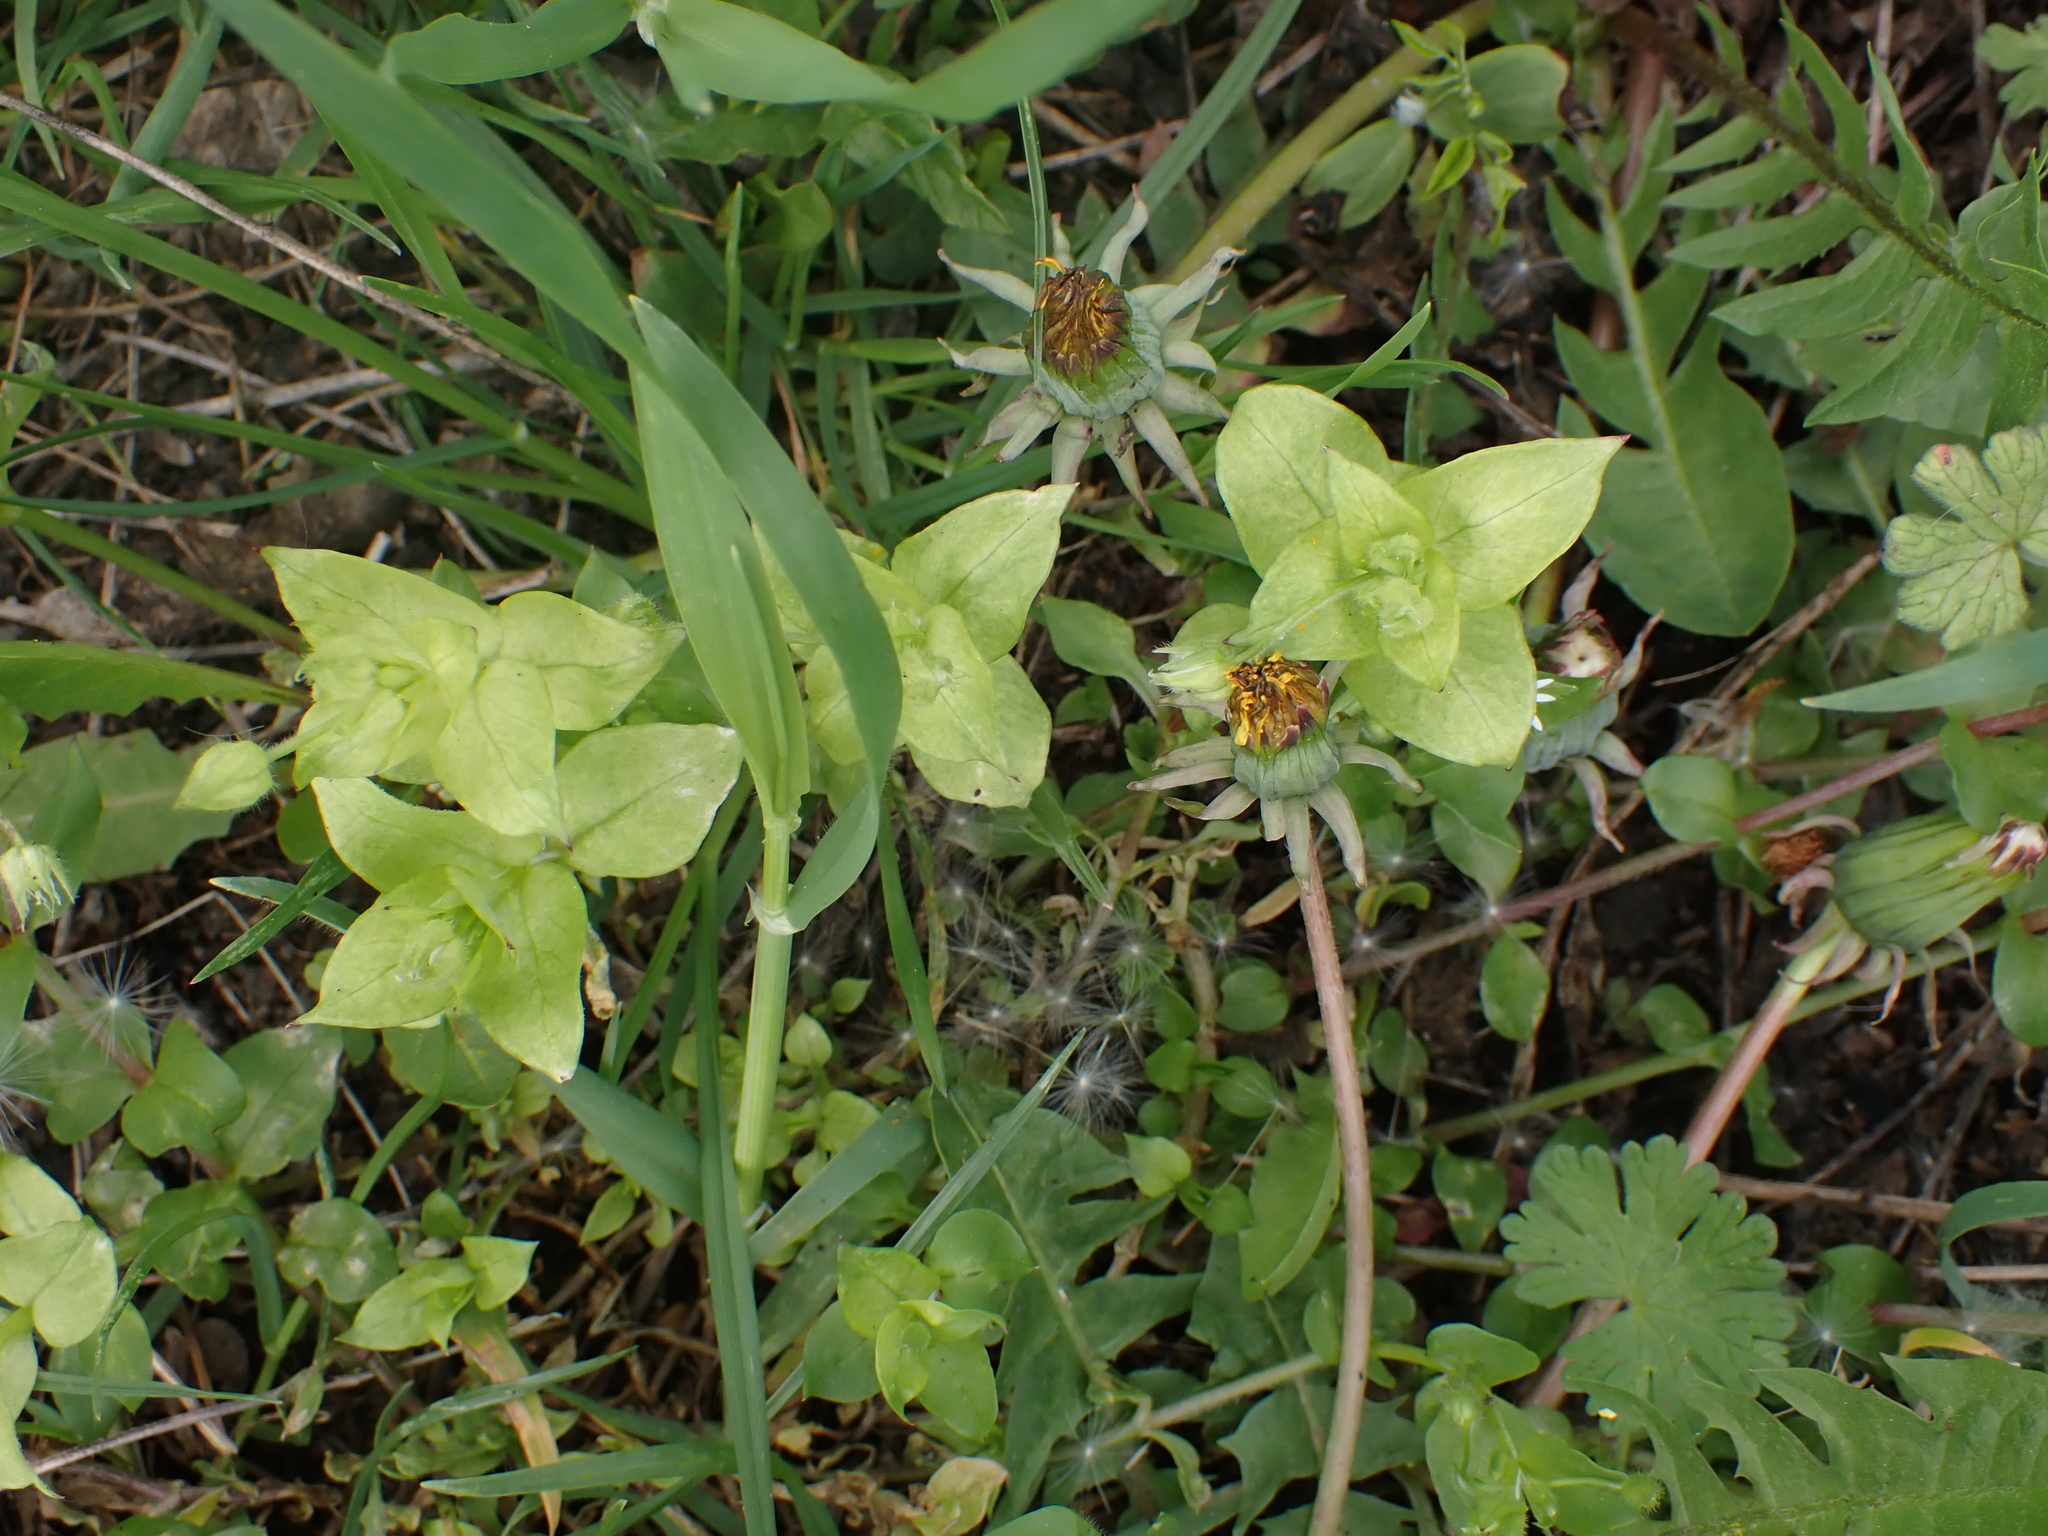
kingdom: Chromista
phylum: Oomycota
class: Peronosporea
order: Peronosporales
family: Peronosporaceae
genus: Peronospora
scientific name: Peronospora alsinearum
